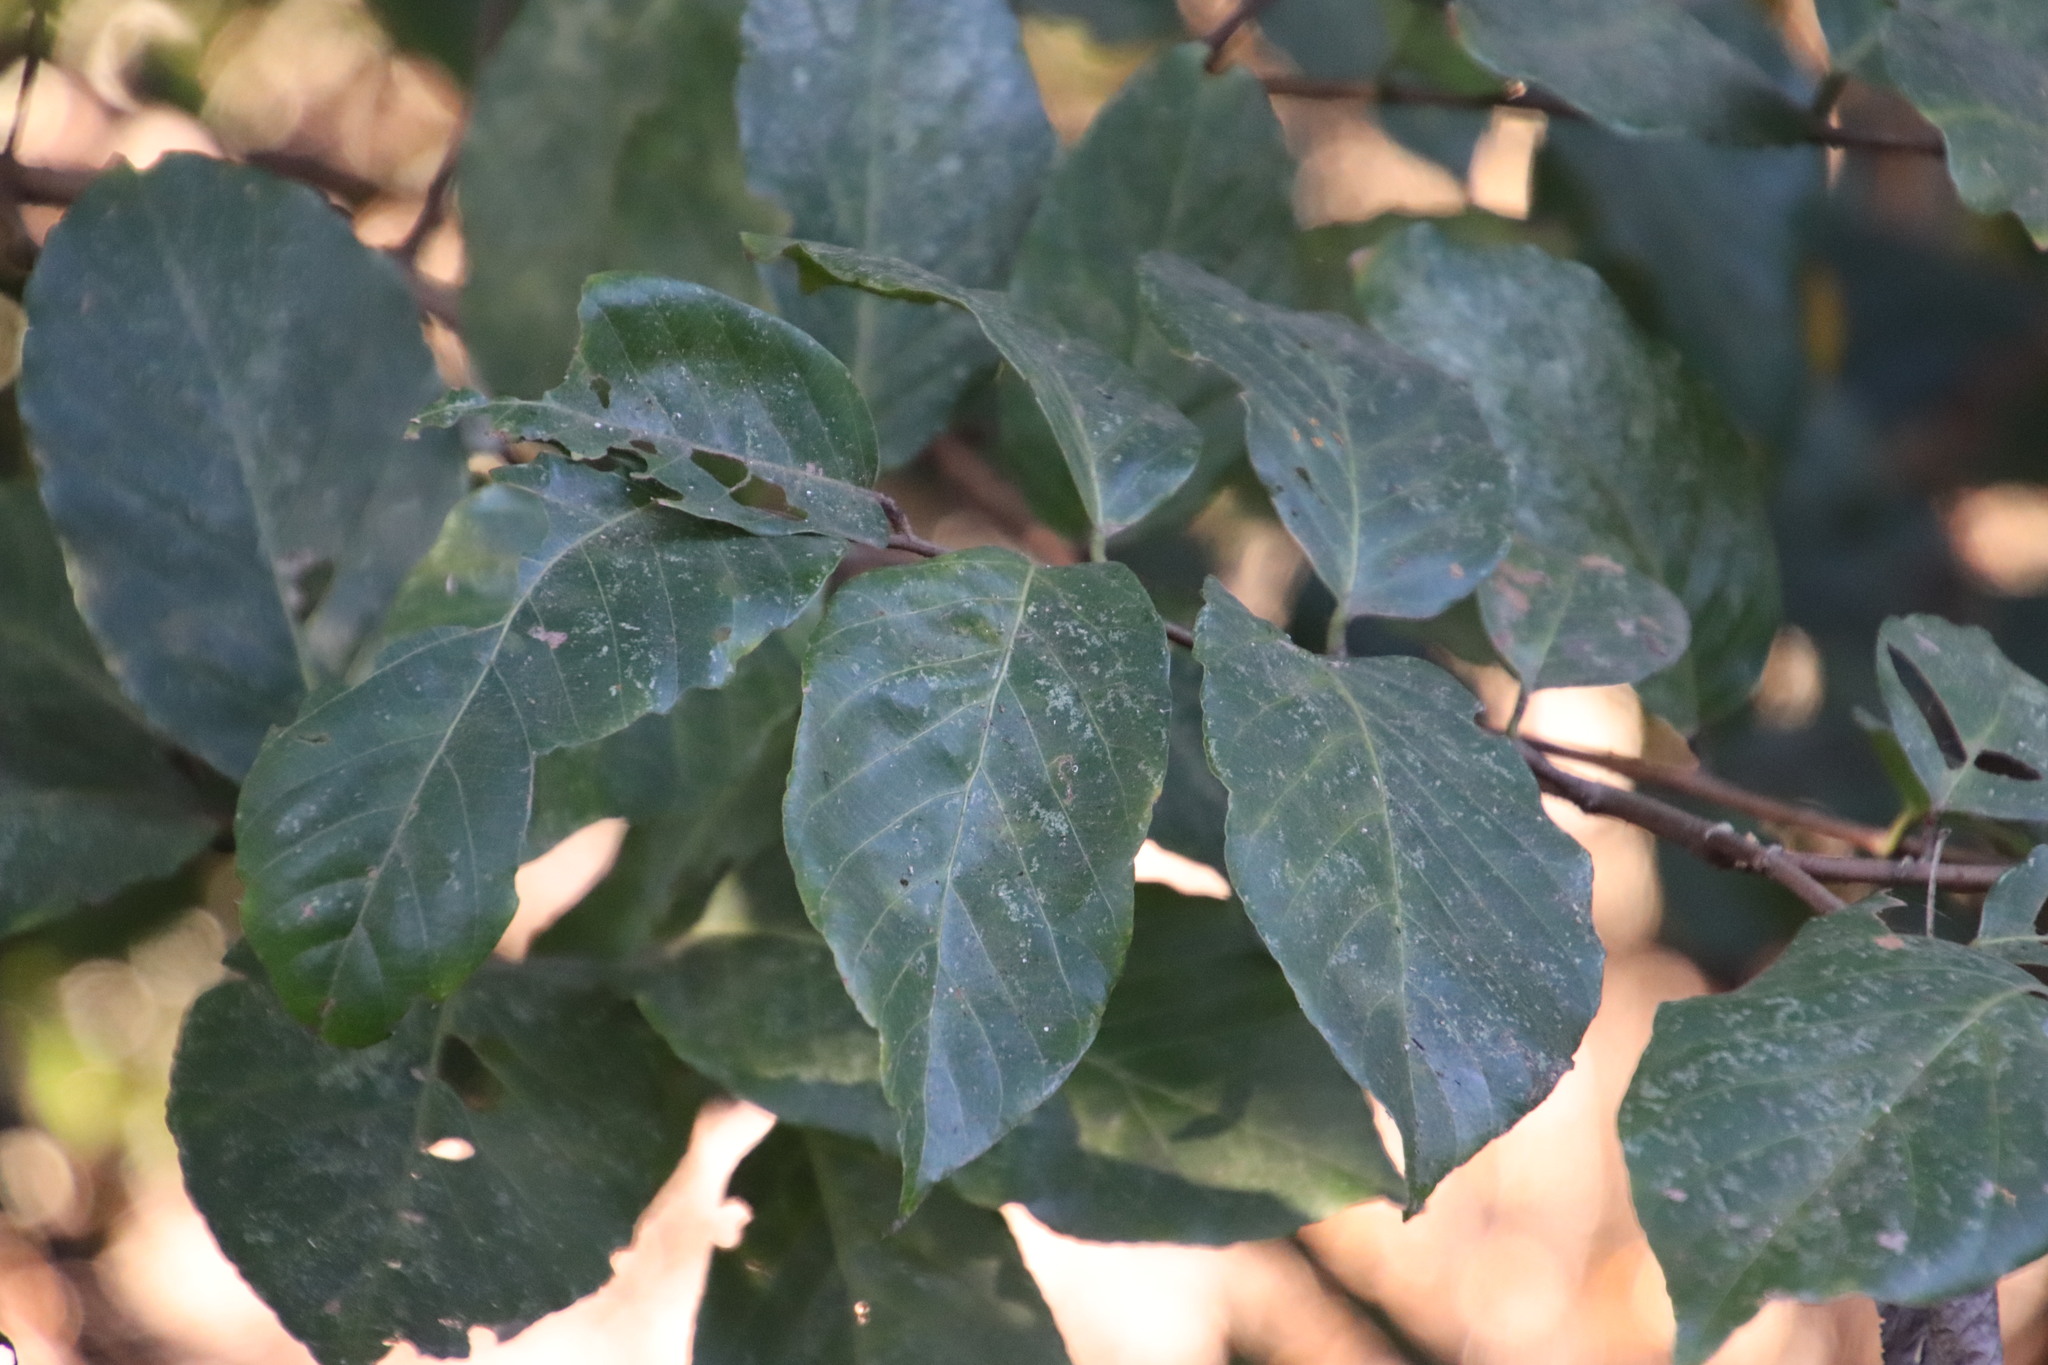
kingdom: Plantae
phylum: Tracheophyta
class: Magnoliopsida
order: Malpighiales
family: Phyllanthaceae
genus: Bridelia
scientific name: Bridelia micrantha
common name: Bridelia
